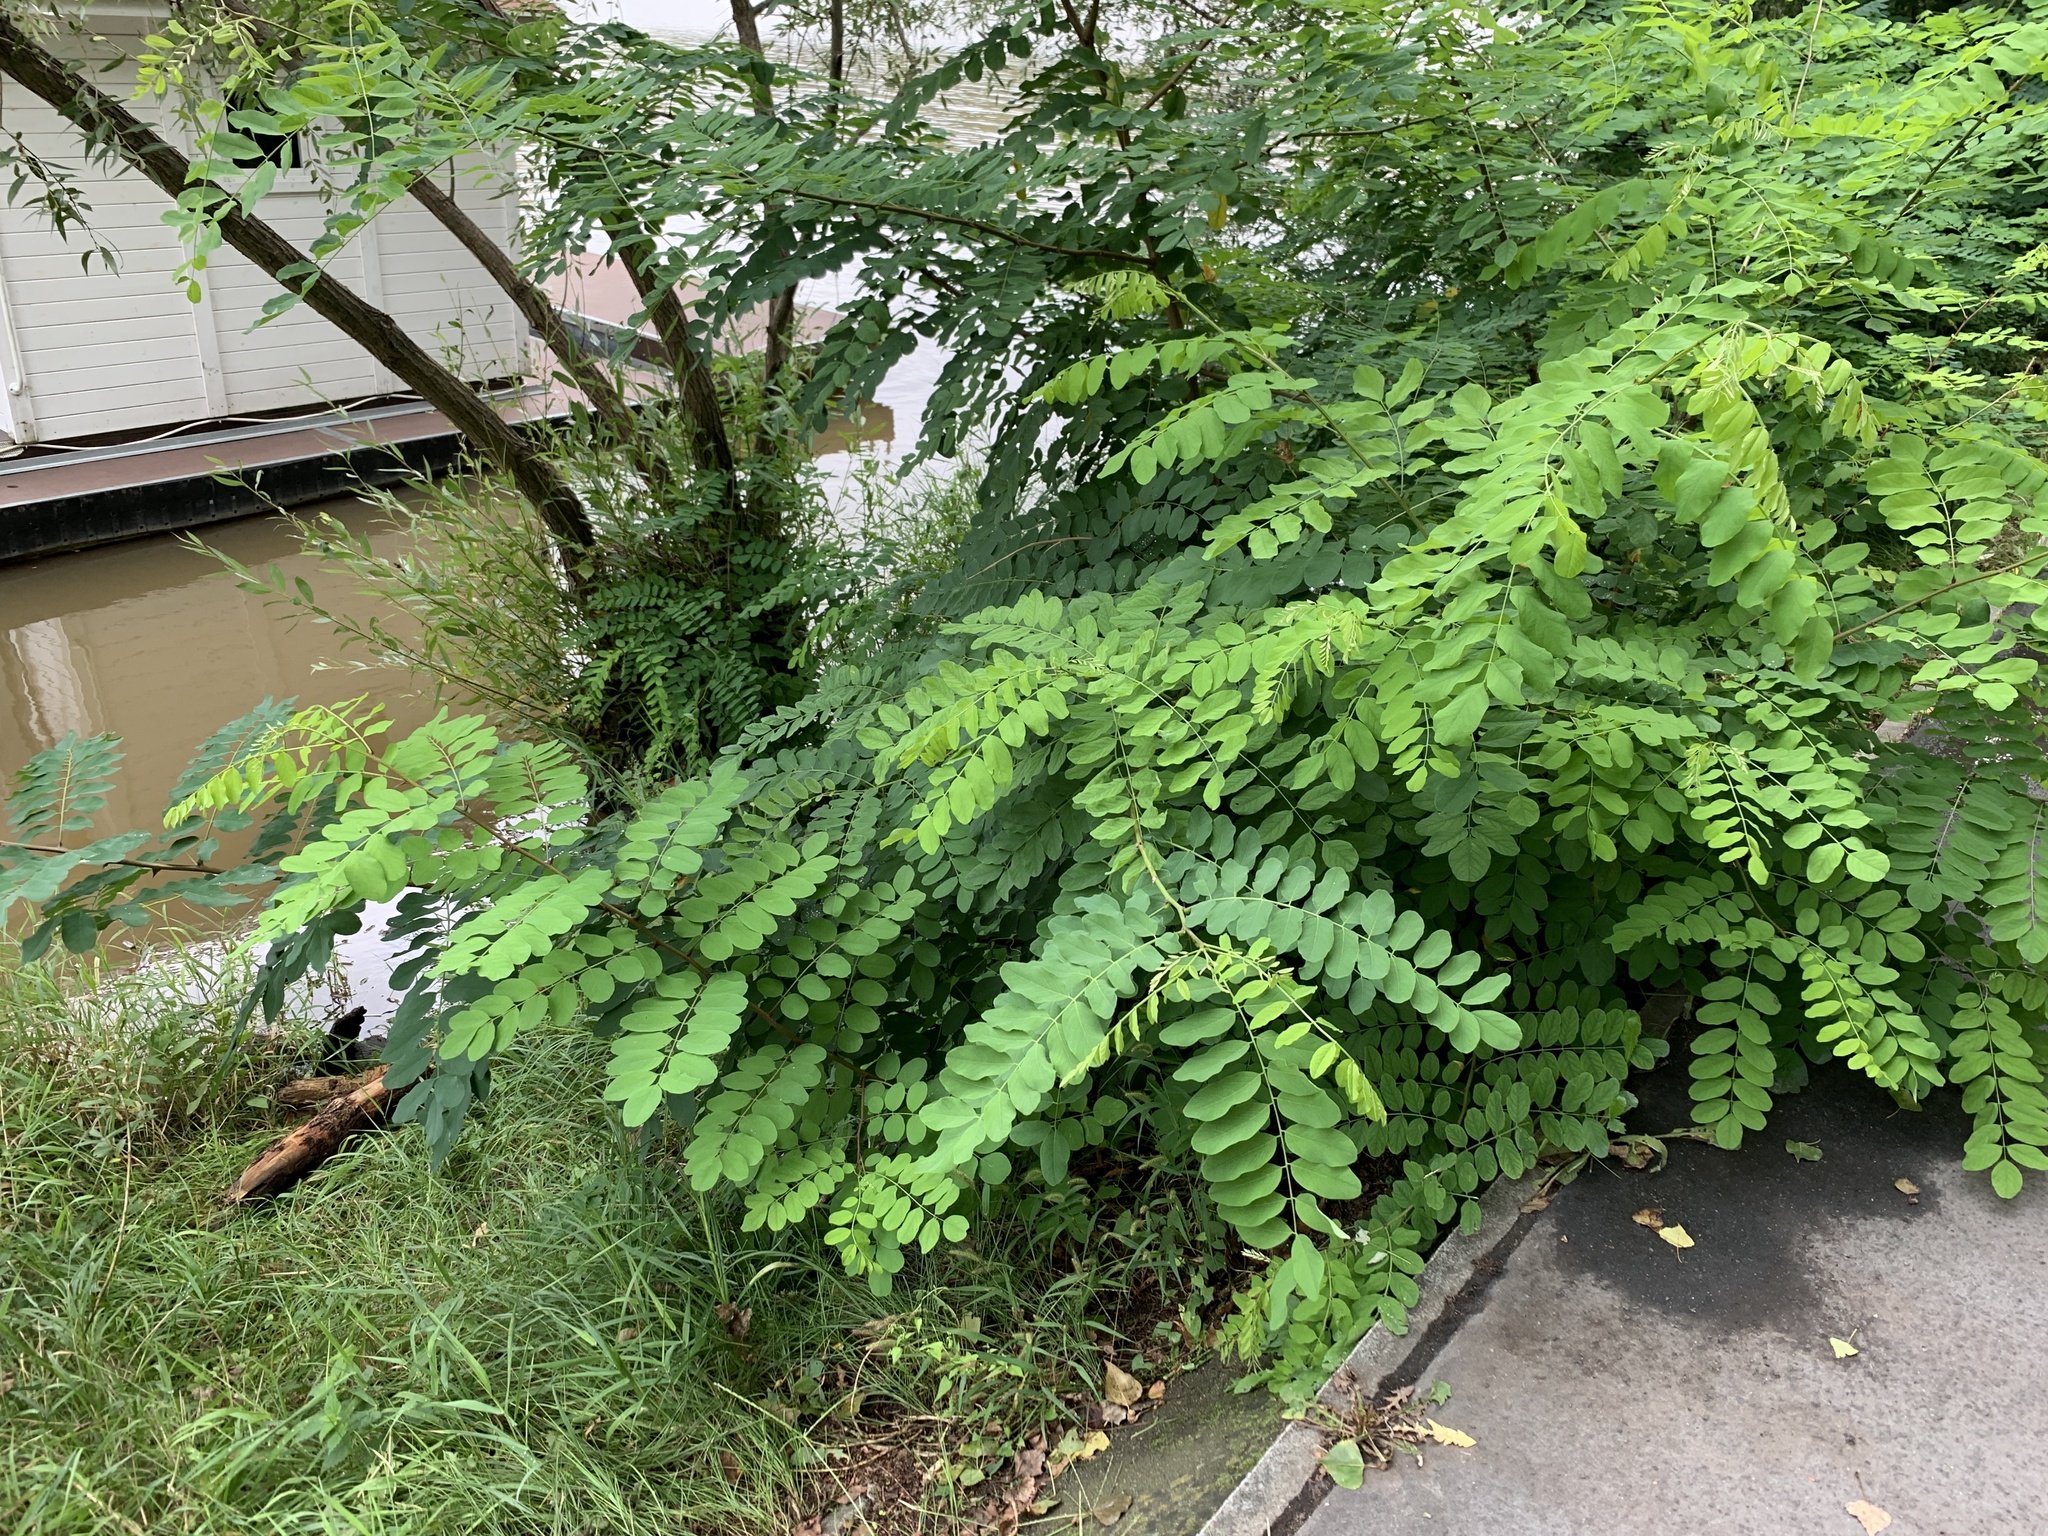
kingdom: Plantae
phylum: Tracheophyta
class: Magnoliopsida
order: Fabales
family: Fabaceae
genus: Robinia
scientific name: Robinia pseudoacacia
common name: Black locust
